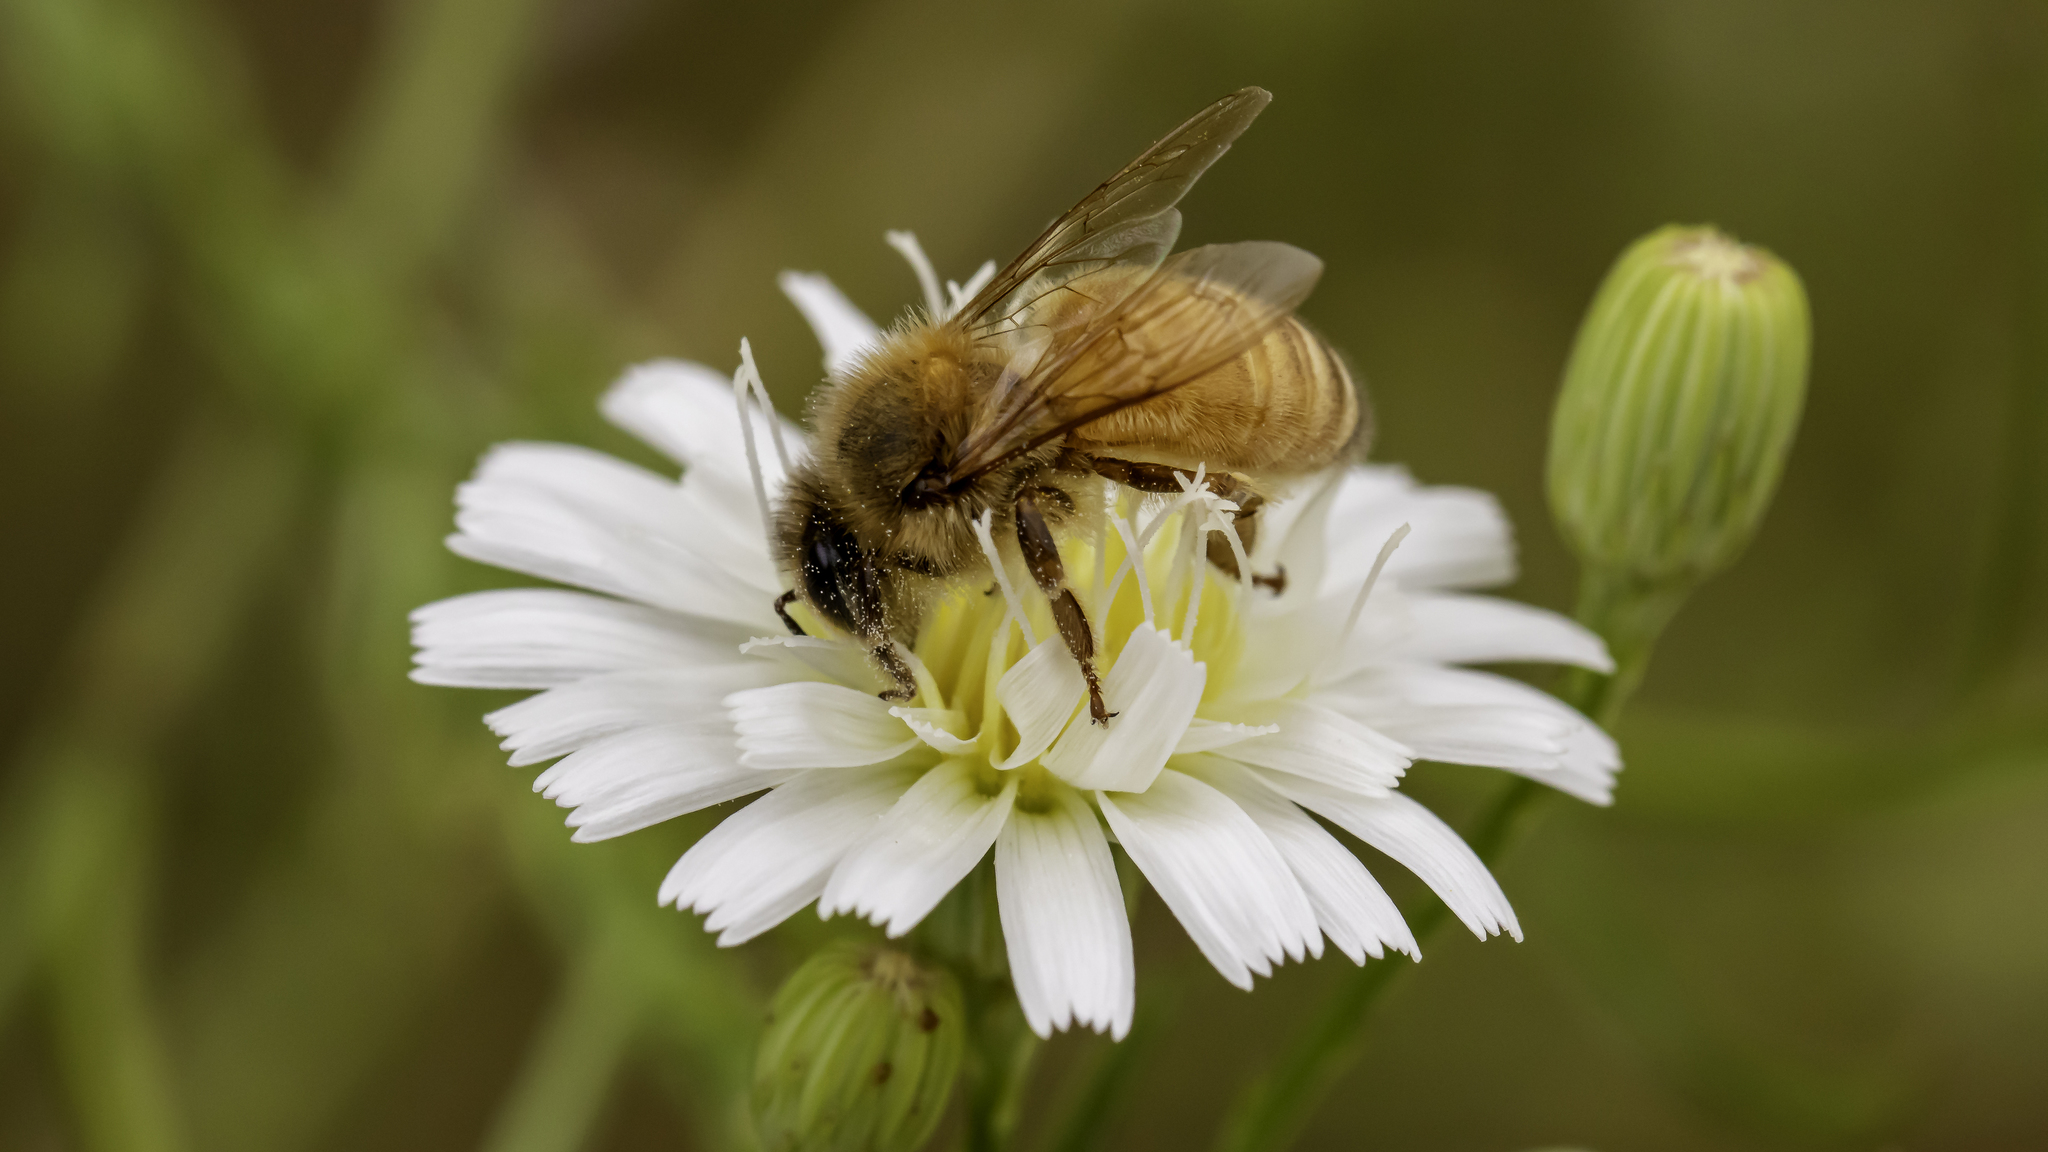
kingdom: Animalia
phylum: Arthropoda
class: Insecta
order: Hymenoptera
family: Apidae
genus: Apis
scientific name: Apis mellifera
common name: Honey bee
